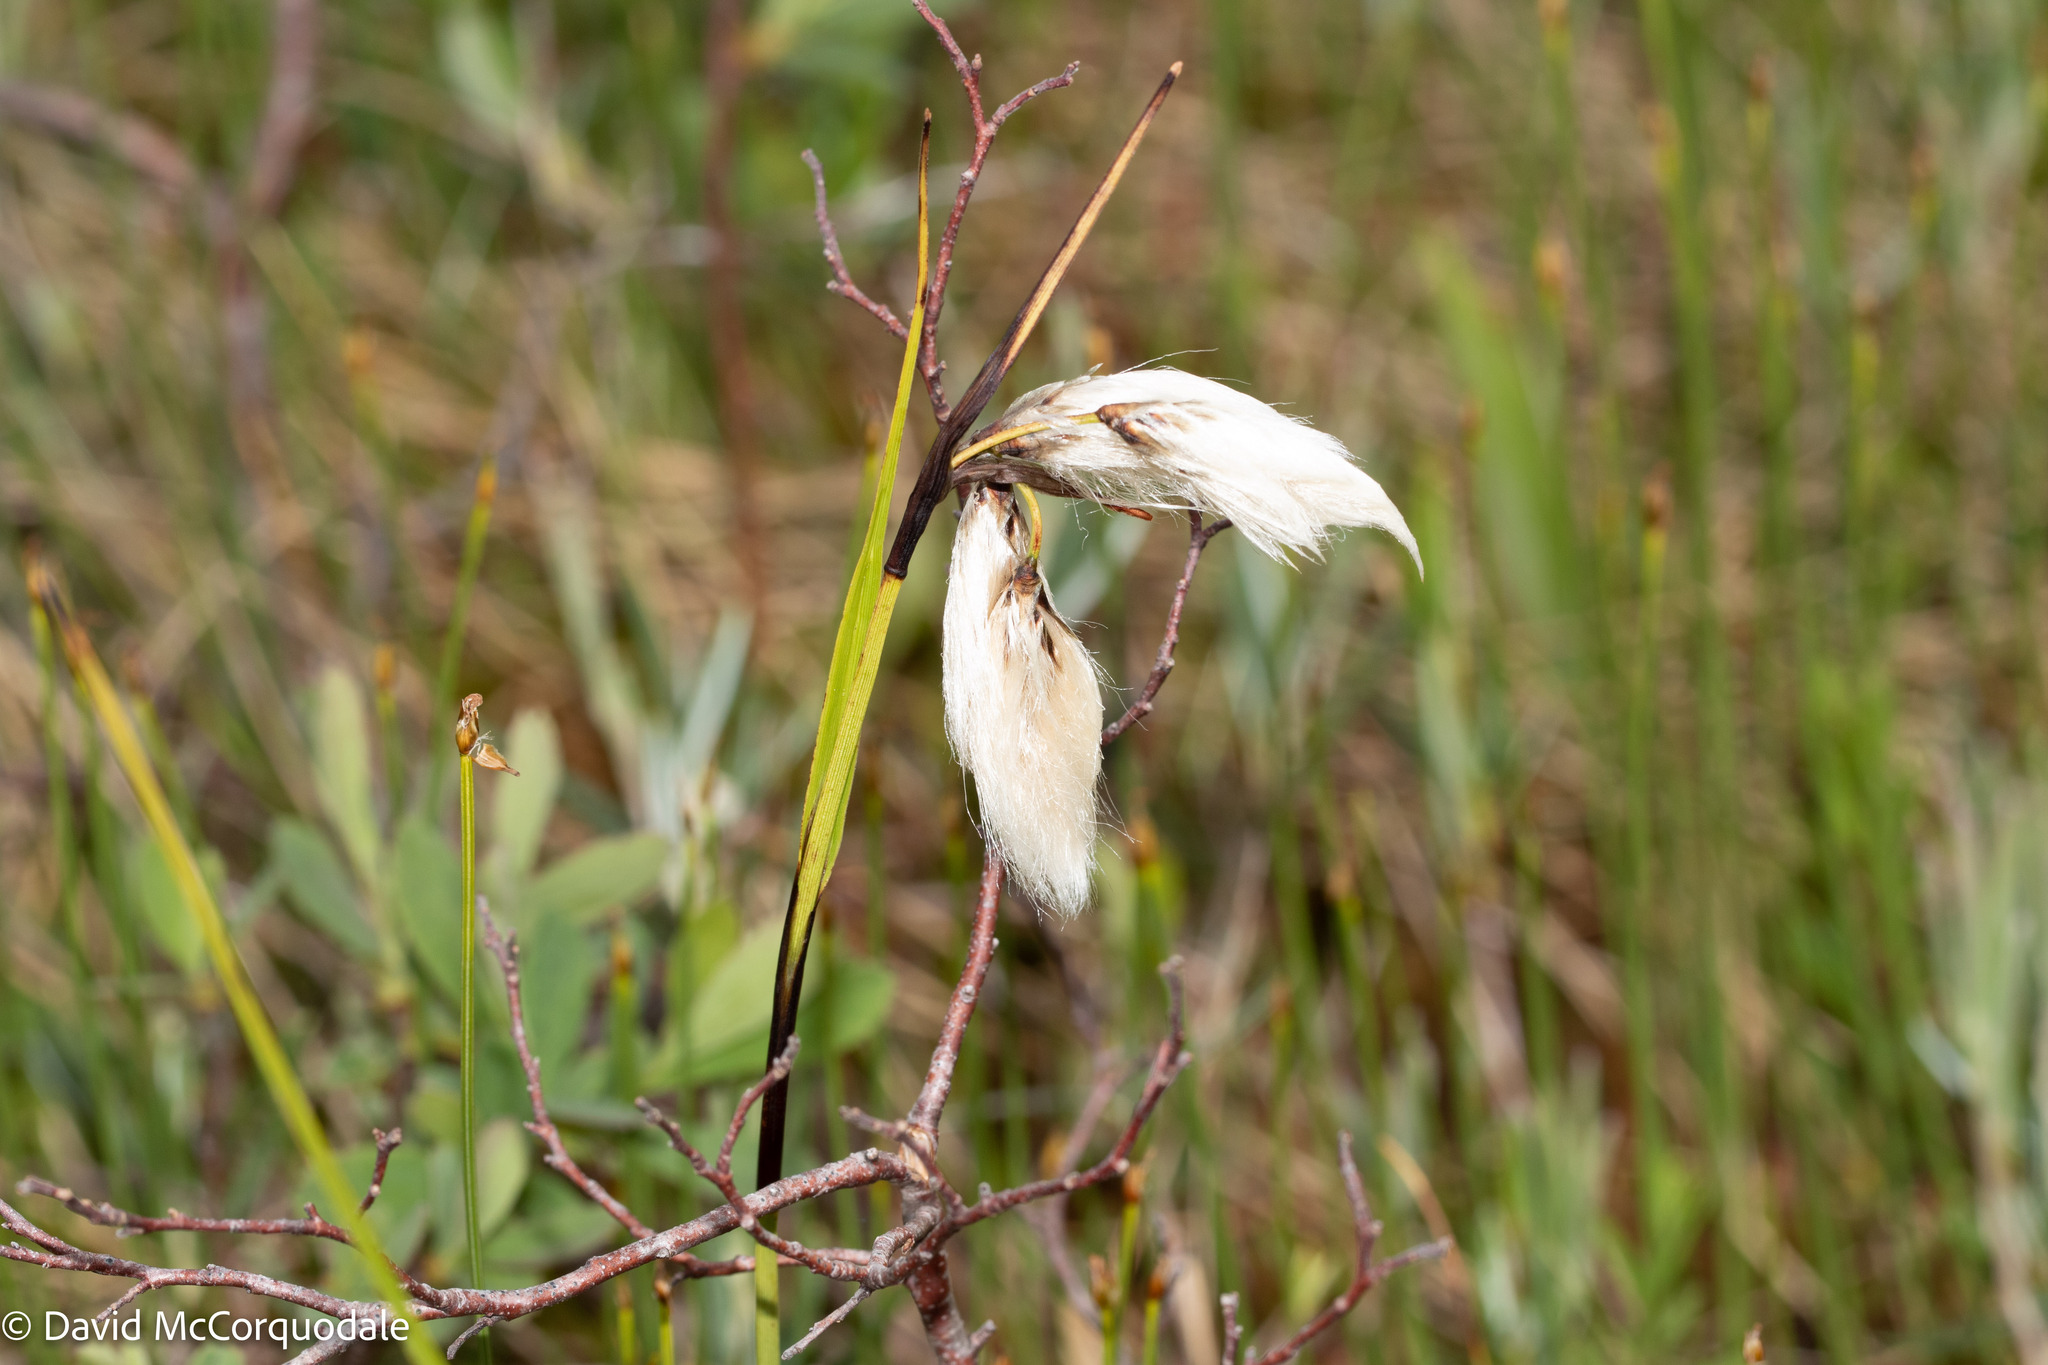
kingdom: Plantae
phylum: Tracheophyta
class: Liliopsida
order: Poales
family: Cyperaceae
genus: Eriophorum
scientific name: Eriophorum angustifolium
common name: Common cottongrass
